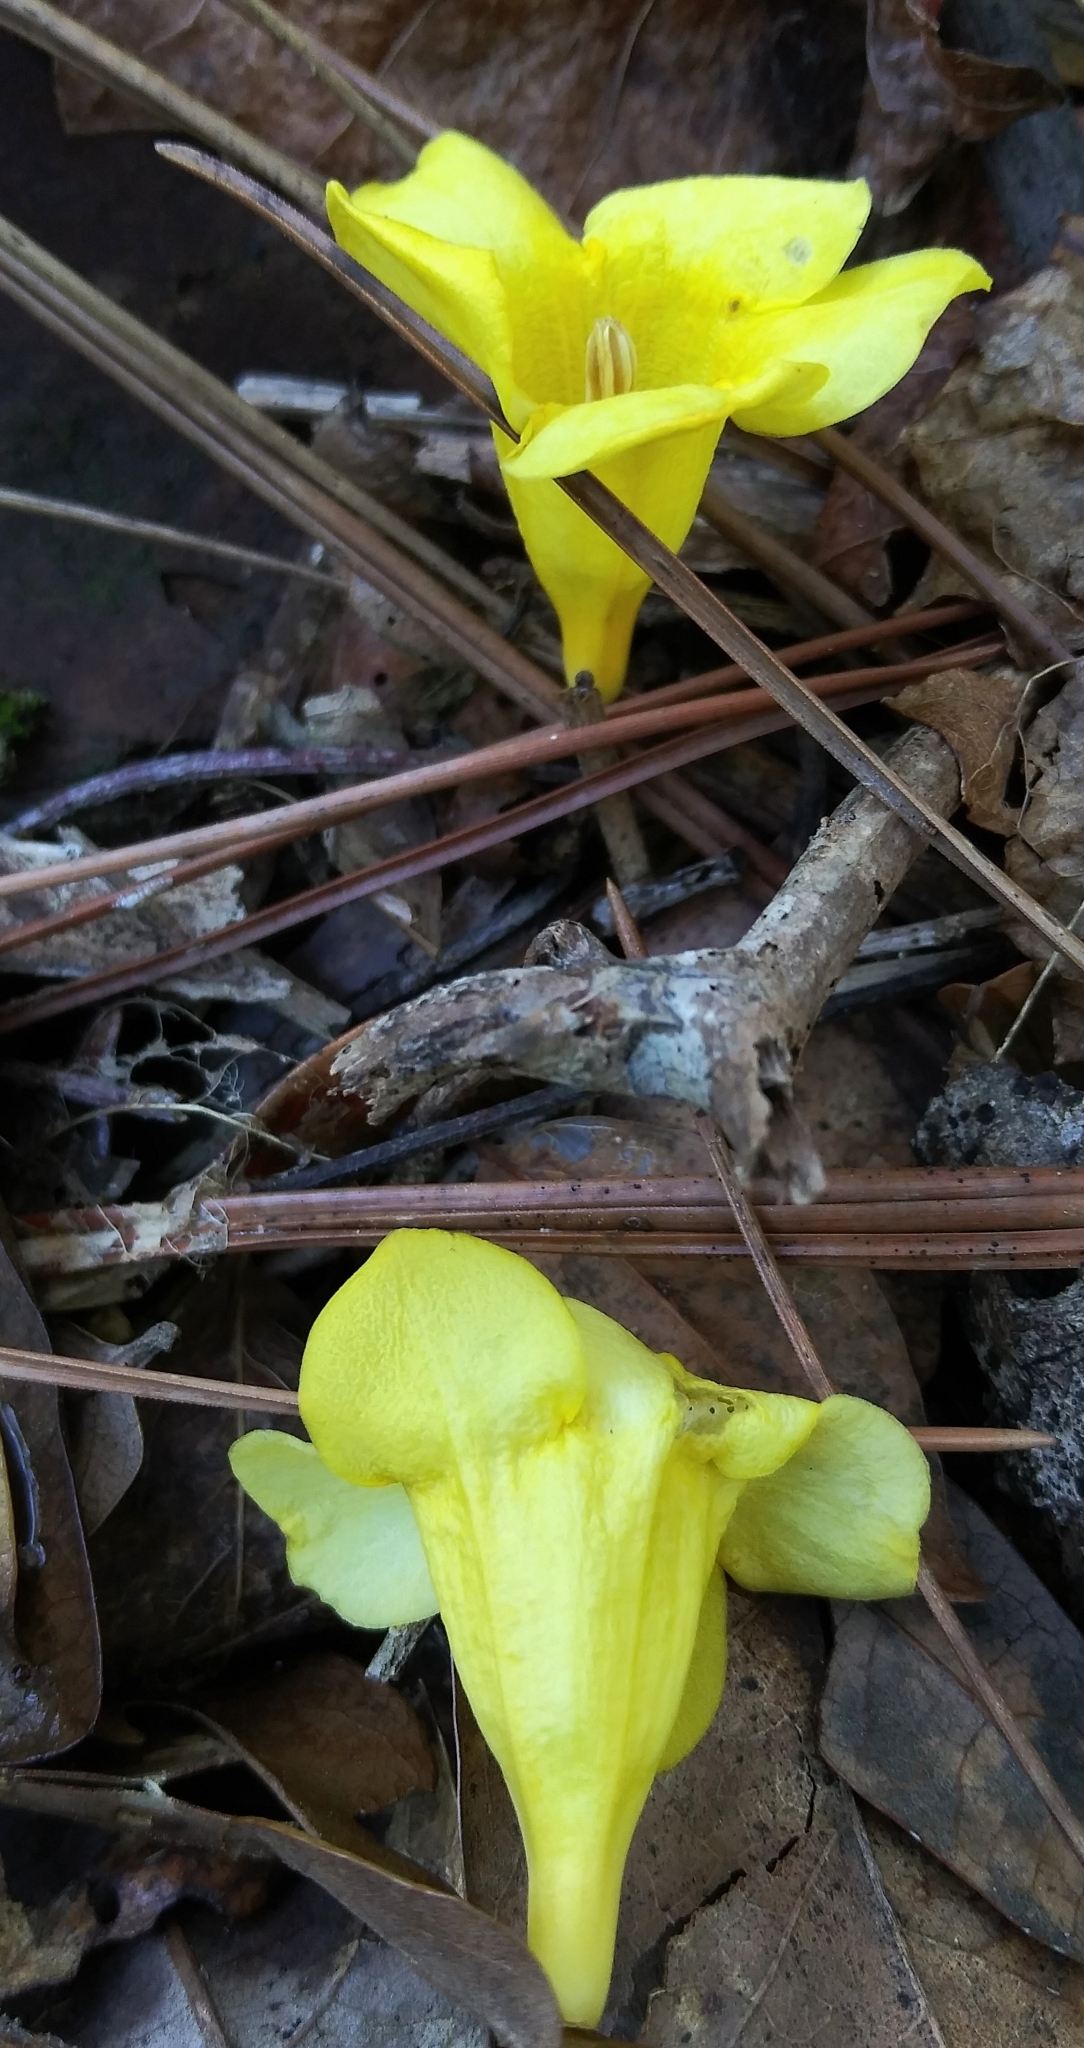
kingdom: Plantae
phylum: Tracheophyta
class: Magnoliopsida
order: Gentianales
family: Gelsemiaceae
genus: Gelsemium
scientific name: Gelsemium sempervirens
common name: Carolina-jasmine
